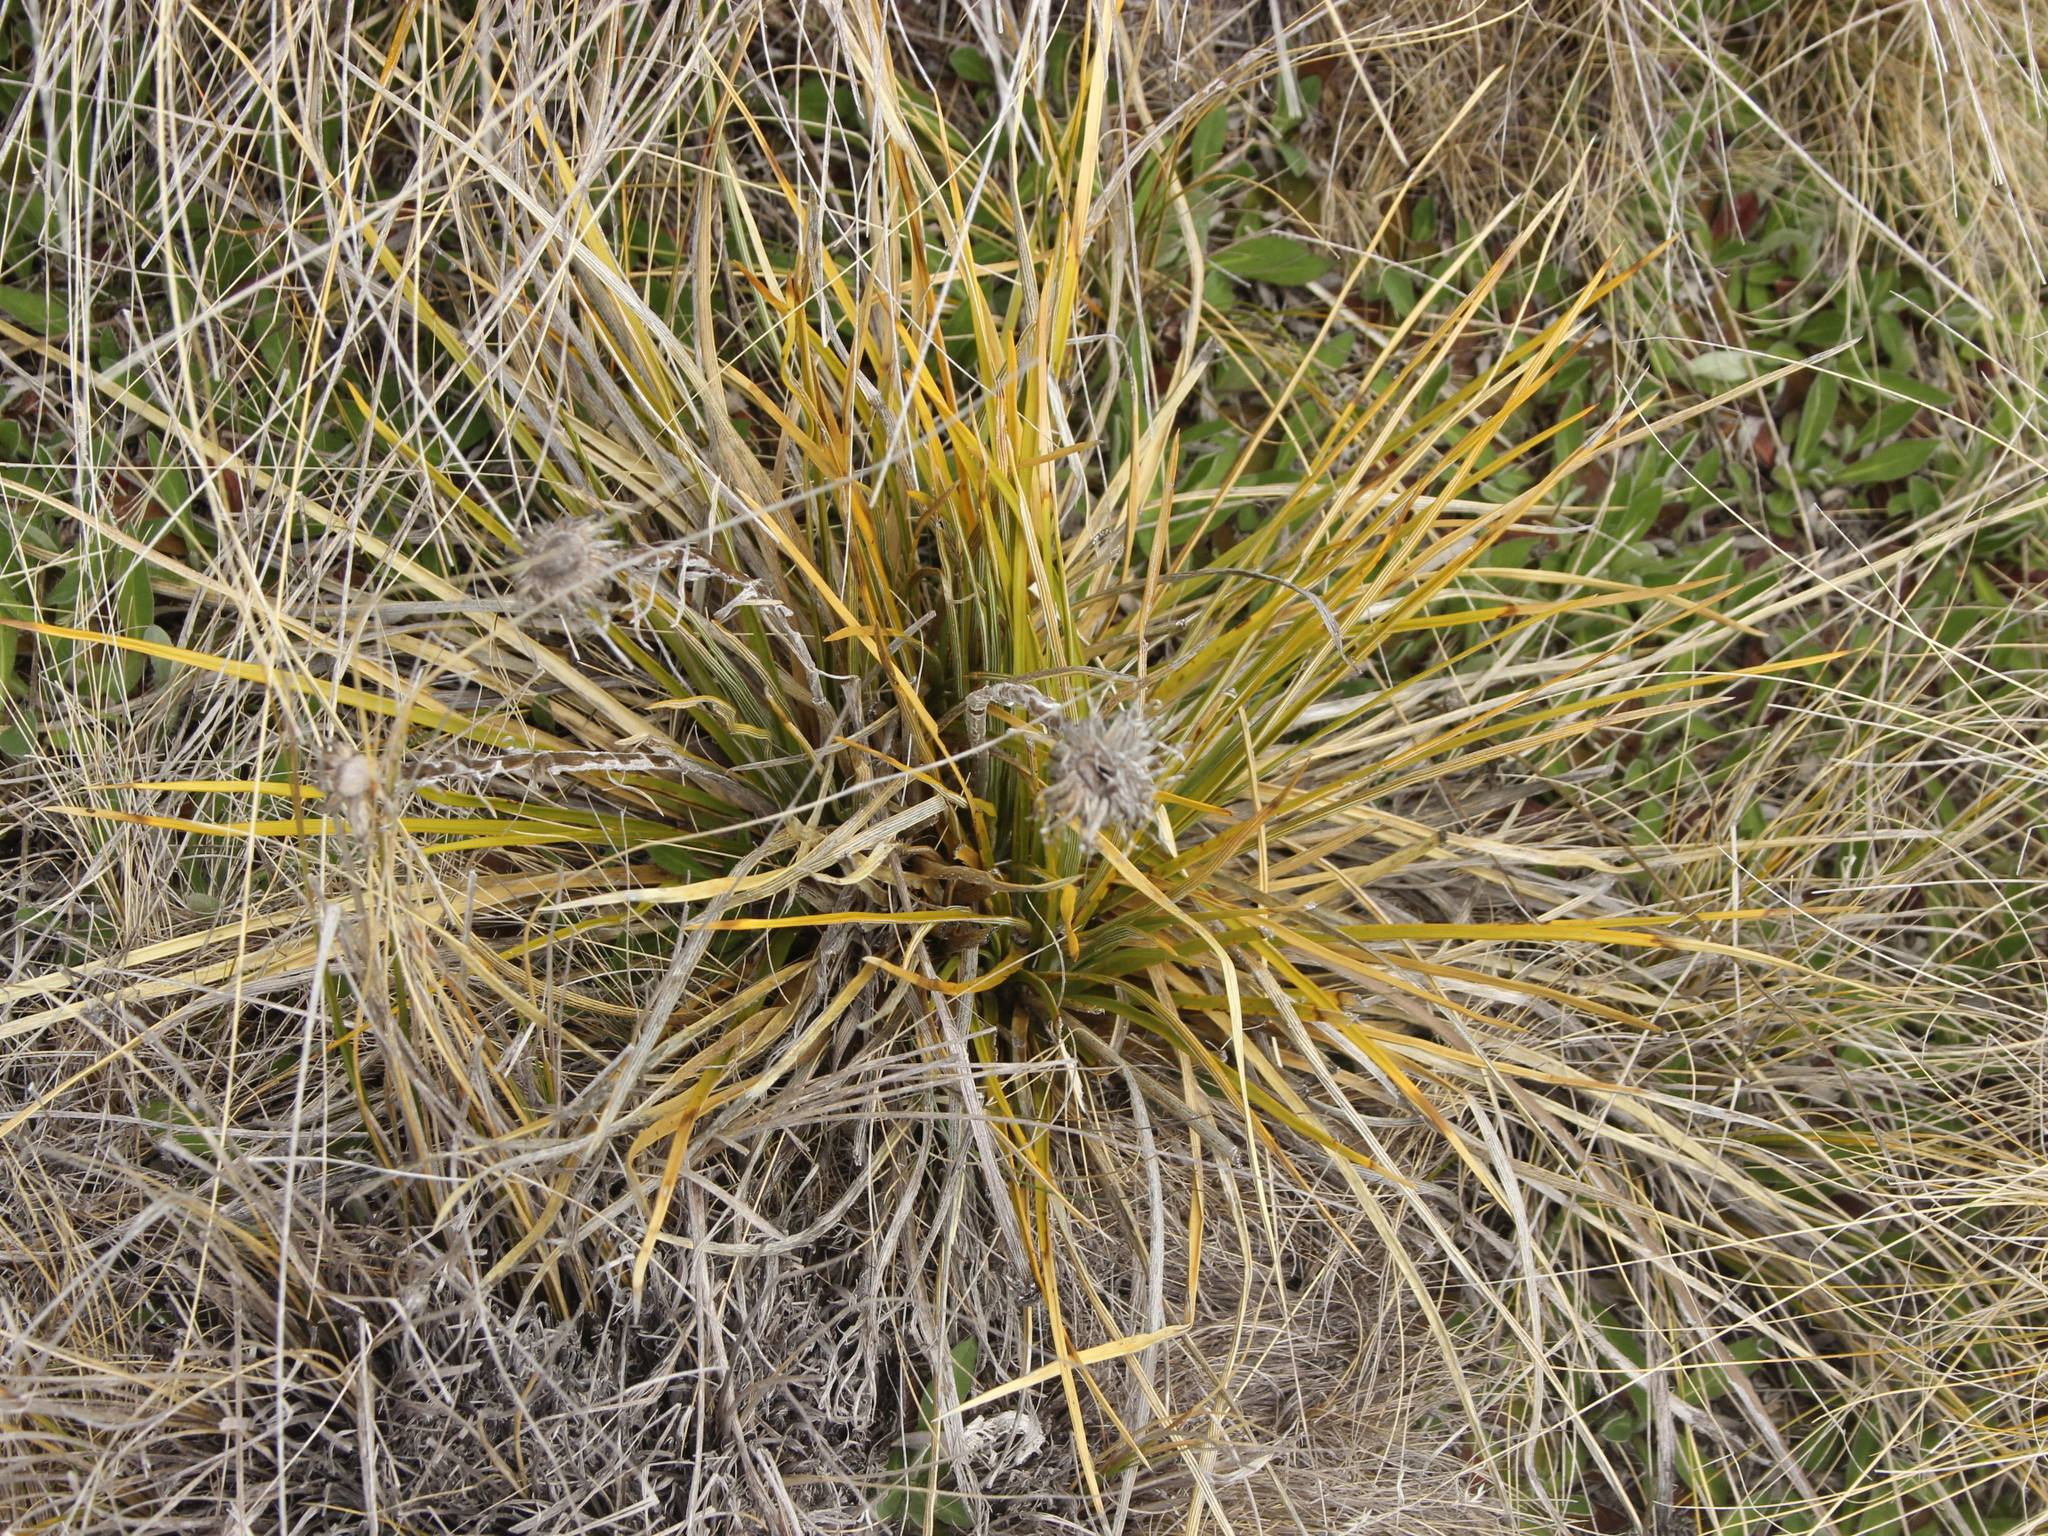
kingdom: Plantae
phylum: Tracheophyta
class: Magnoliopsida
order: Asterales
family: Asteraceae
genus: Celmisia
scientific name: Celmisia lyallii
